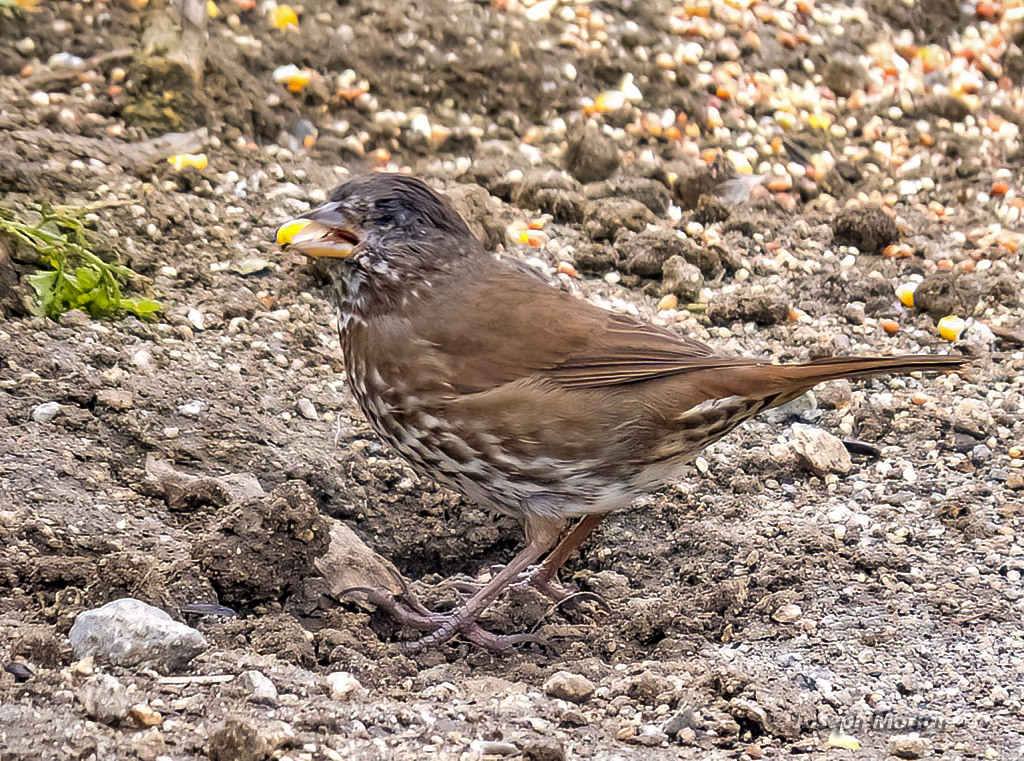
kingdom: Animalia
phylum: Chordata
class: Aves
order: Passeriformes
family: Passerellidae
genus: Passerella
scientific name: Passerella iliaca
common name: Fox sparrow
